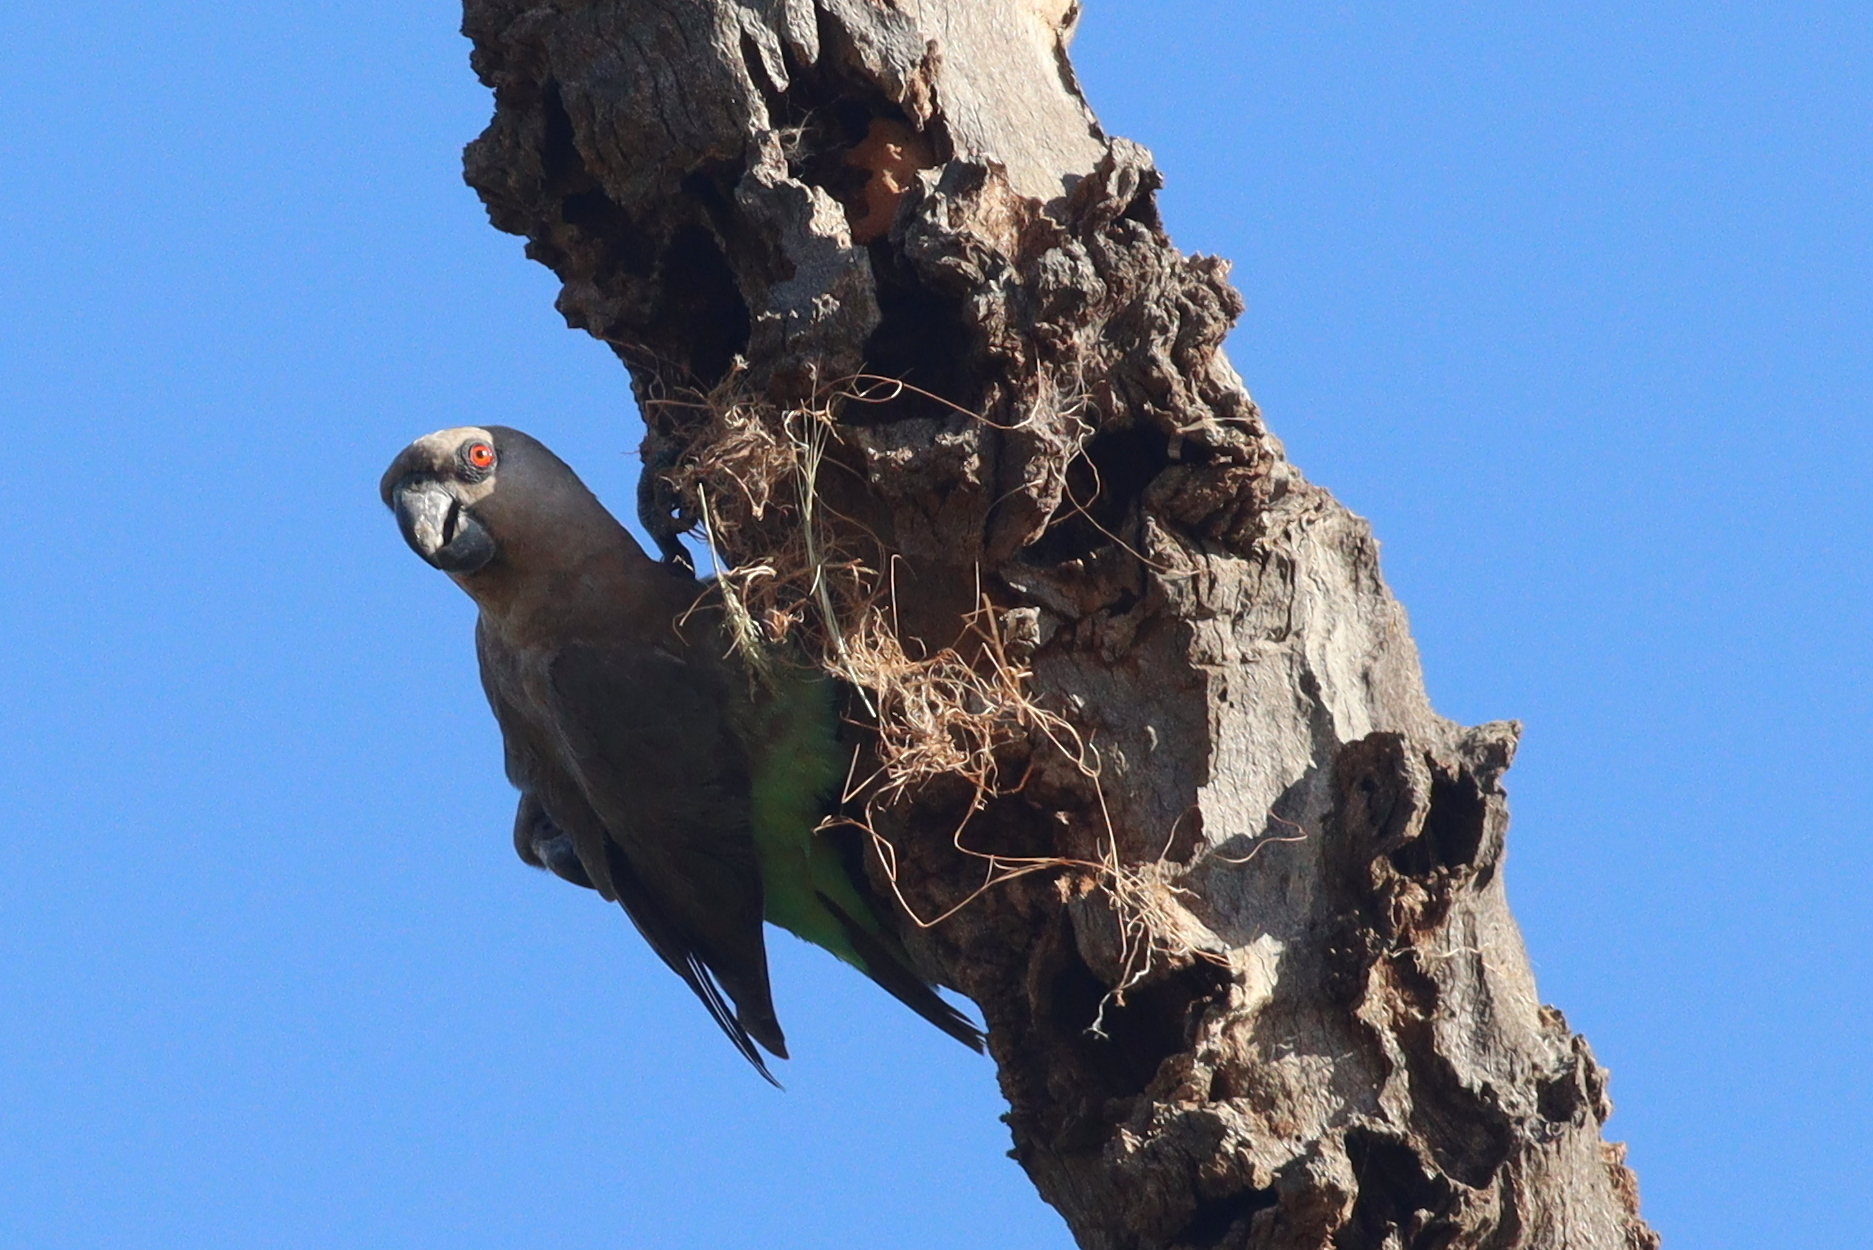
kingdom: Animalia
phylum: Chordata
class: Aves
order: Psittaciformes
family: Psittacidae
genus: Poicephalus
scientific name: Poicephalus rufiventris
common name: Red-bellied parrot
